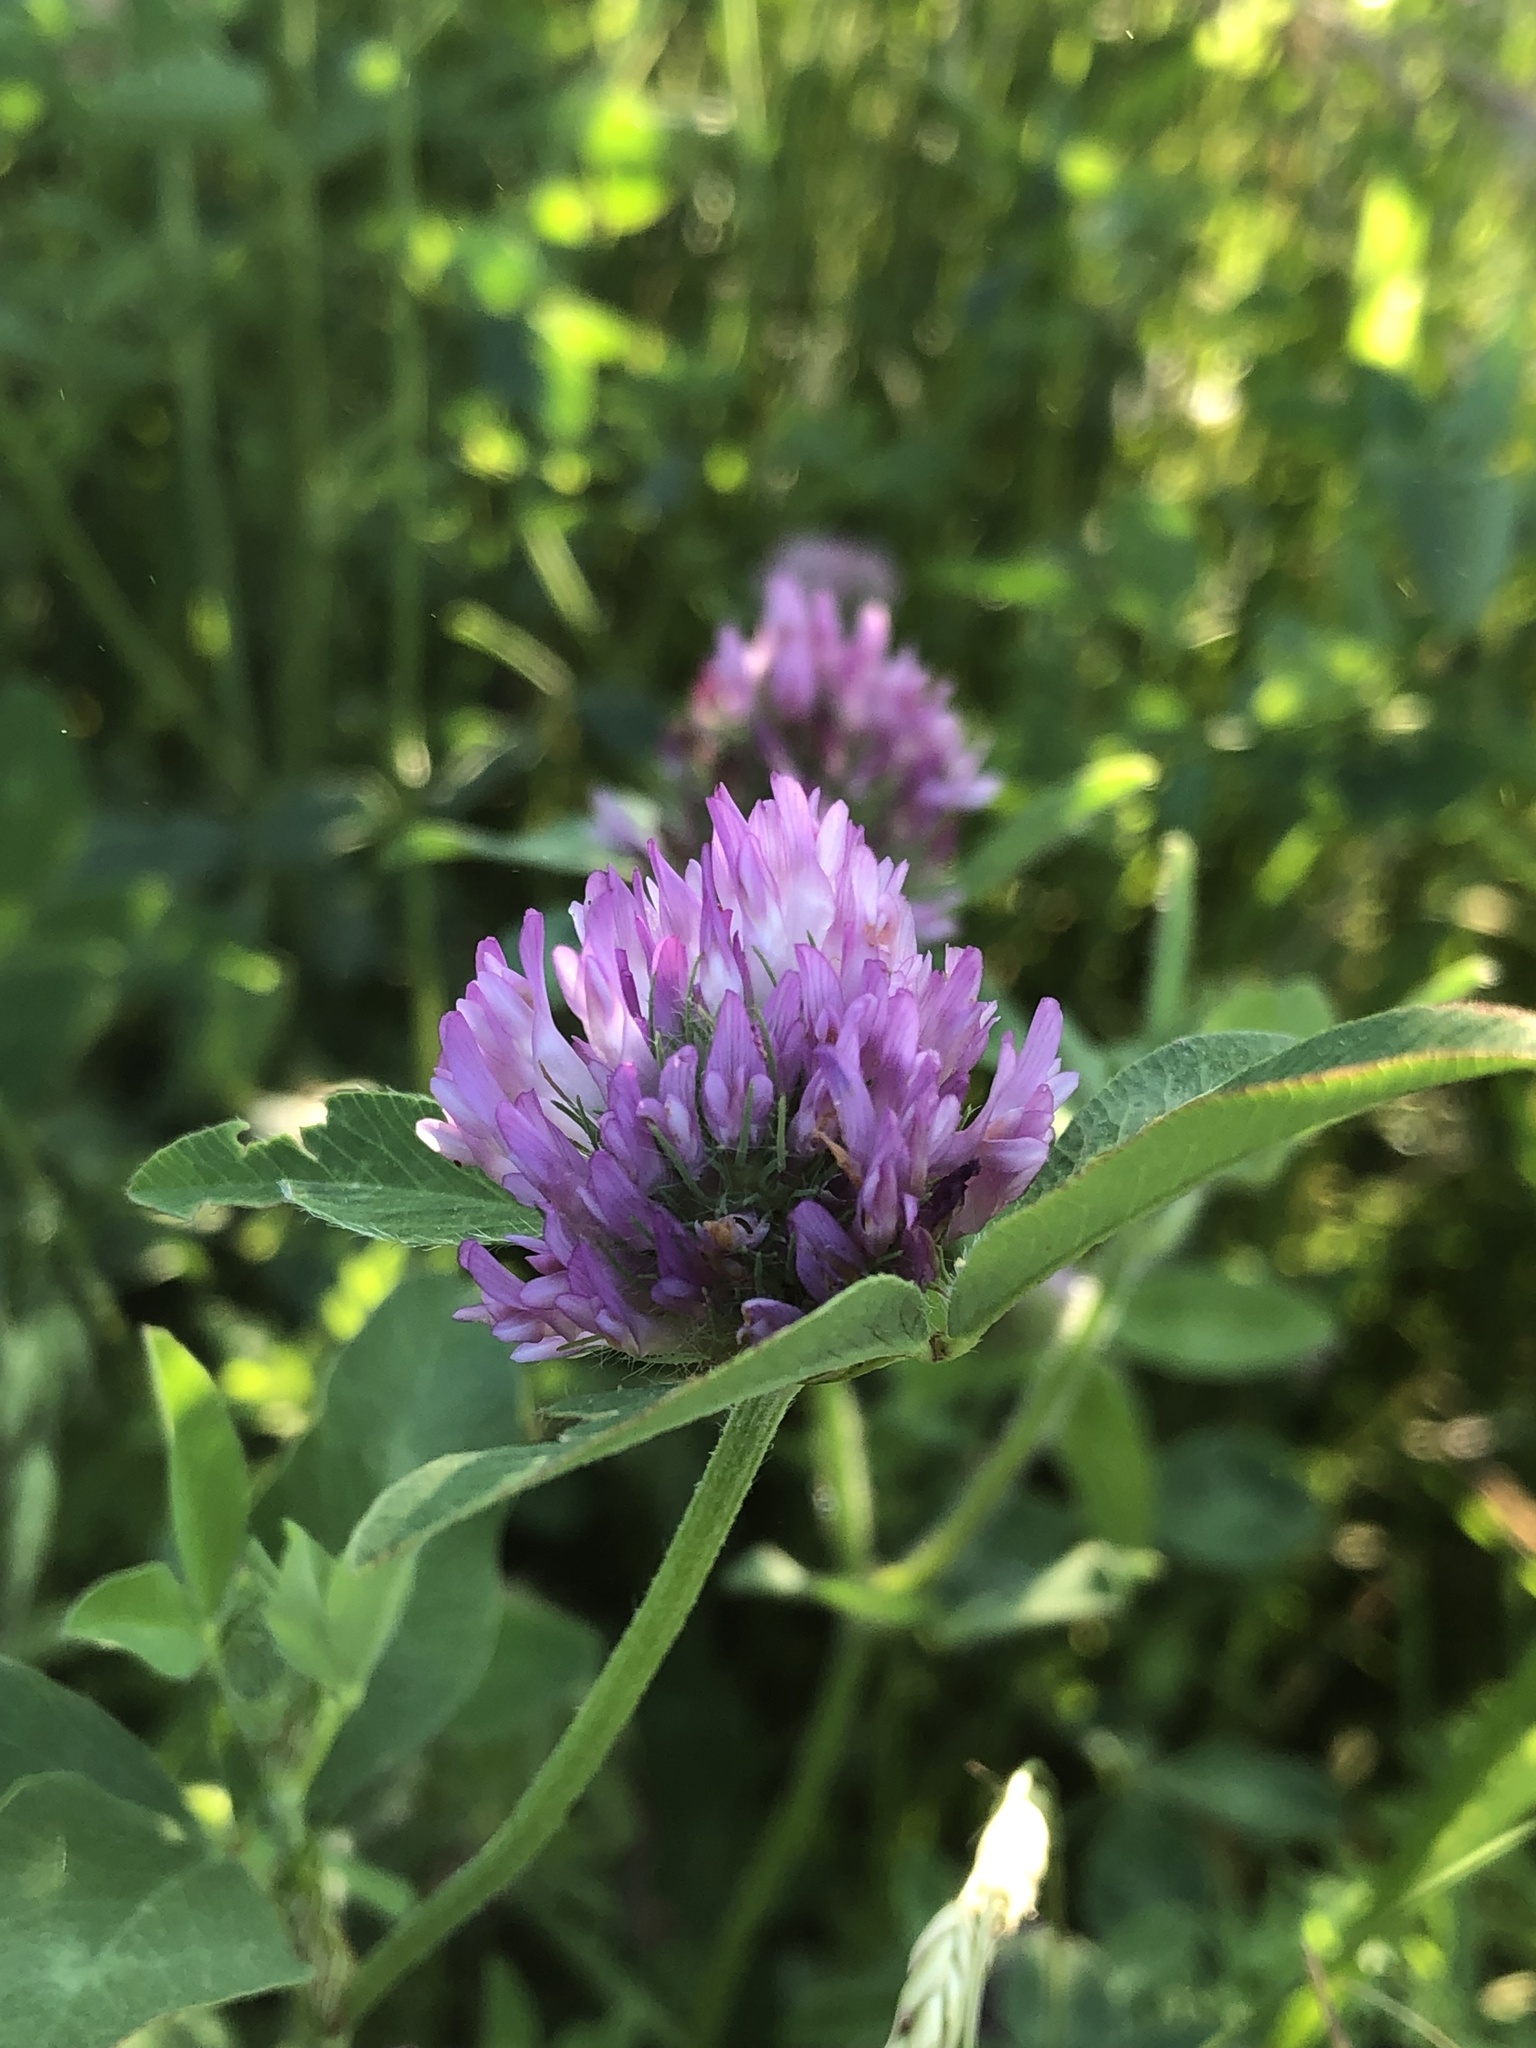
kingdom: Plantae
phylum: Tracheophyta
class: Magnoliopsida
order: Fabales
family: Fabaceae
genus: Trifolium
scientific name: Trifolium pratense
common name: Red clover
